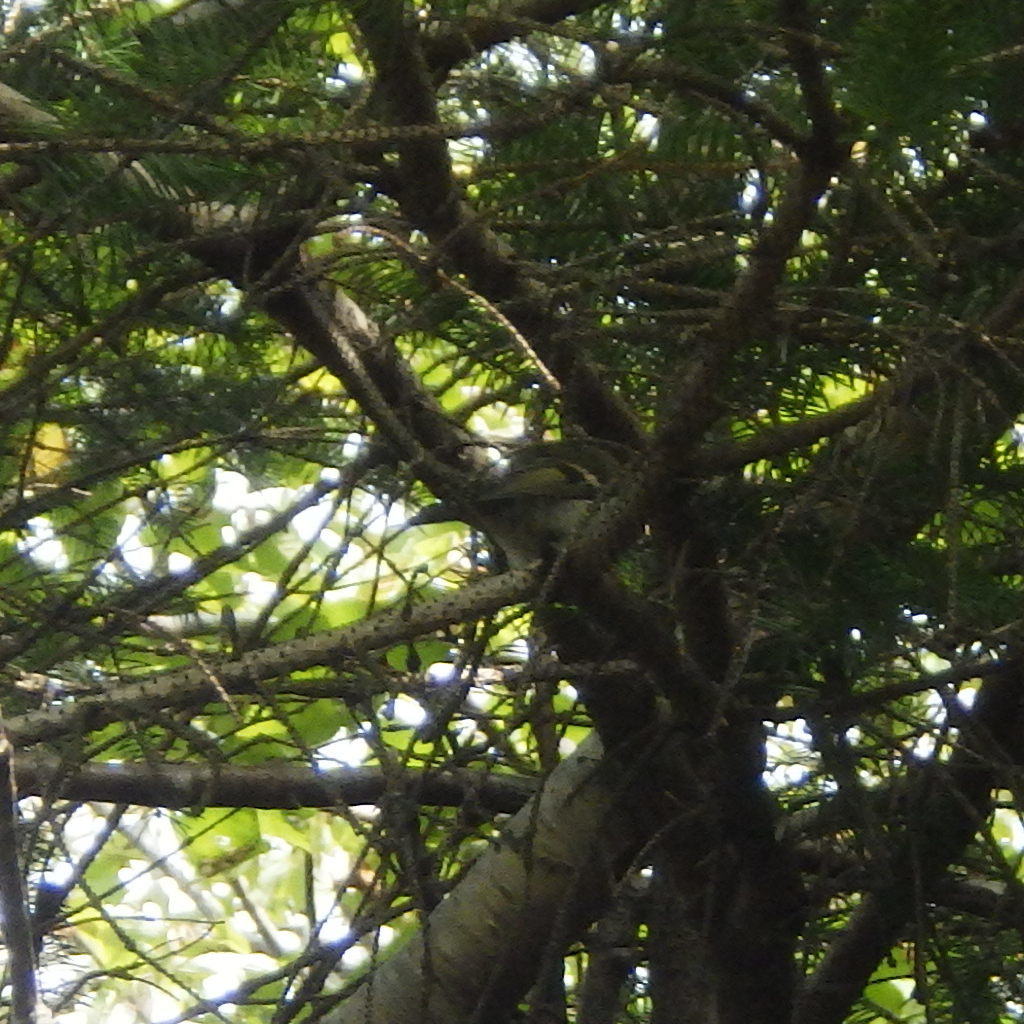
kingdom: Animalia
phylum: Chordata
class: Aves
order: Passeriformes
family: Regulidae
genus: Regulus
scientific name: Regulus satrapa
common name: Golden-crowned kinglet
